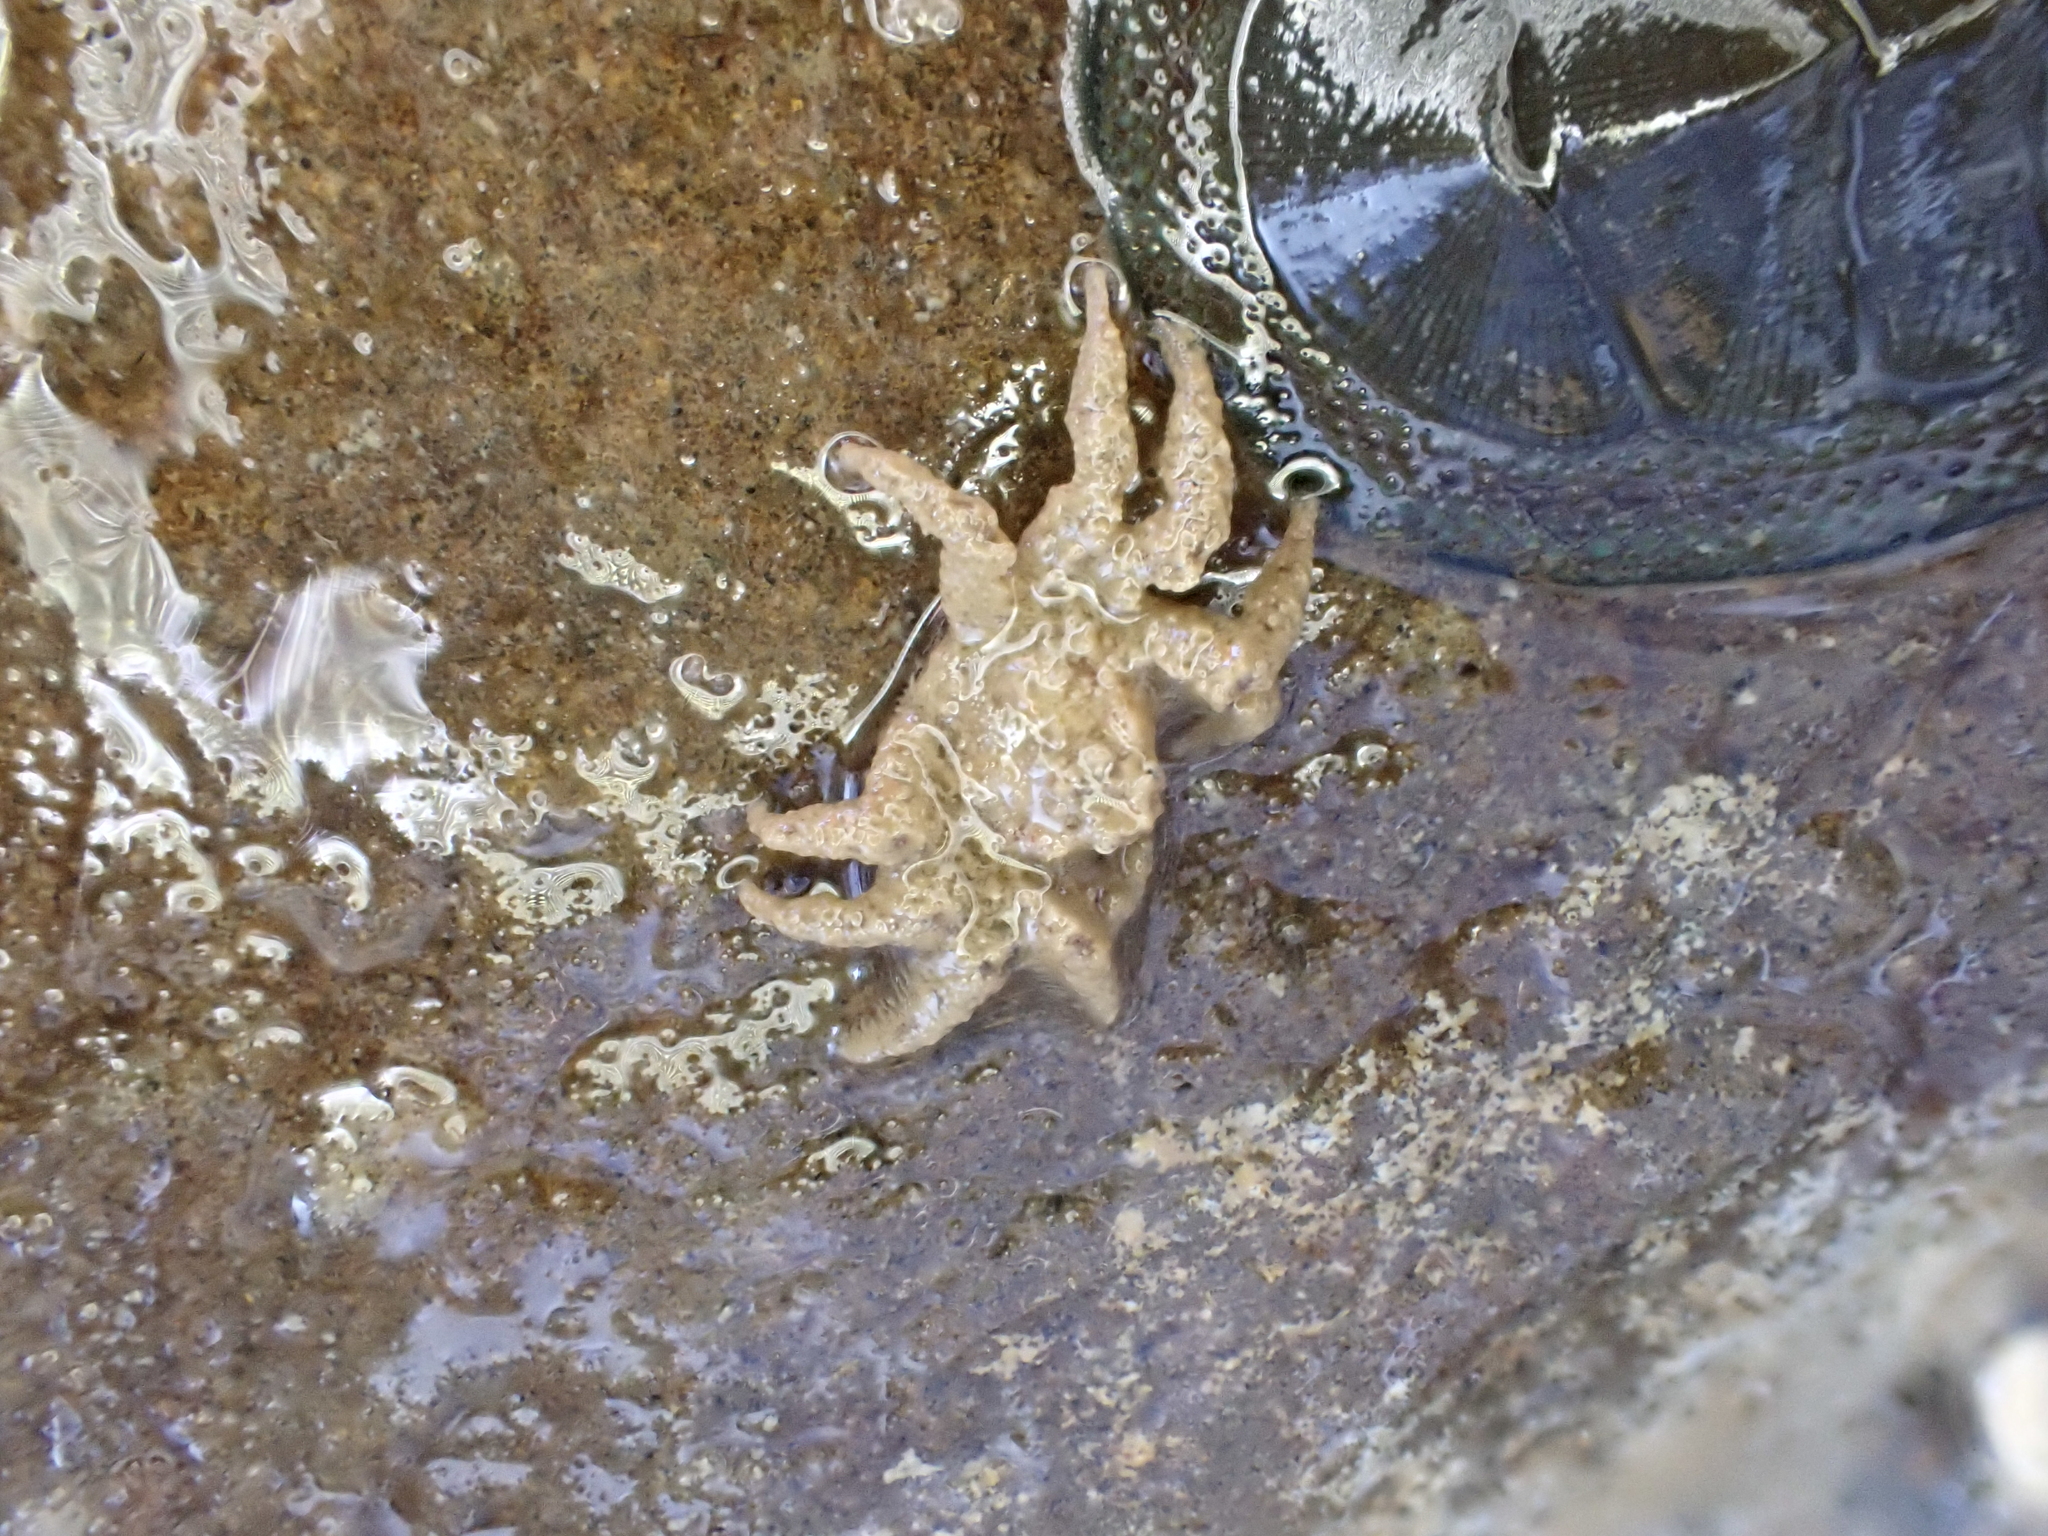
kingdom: Animalia
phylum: Arthropoda
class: Malacostraca
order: Decapoda
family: Hymenosomatidae
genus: Neohymenicus
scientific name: Neohymenicus pubescens
